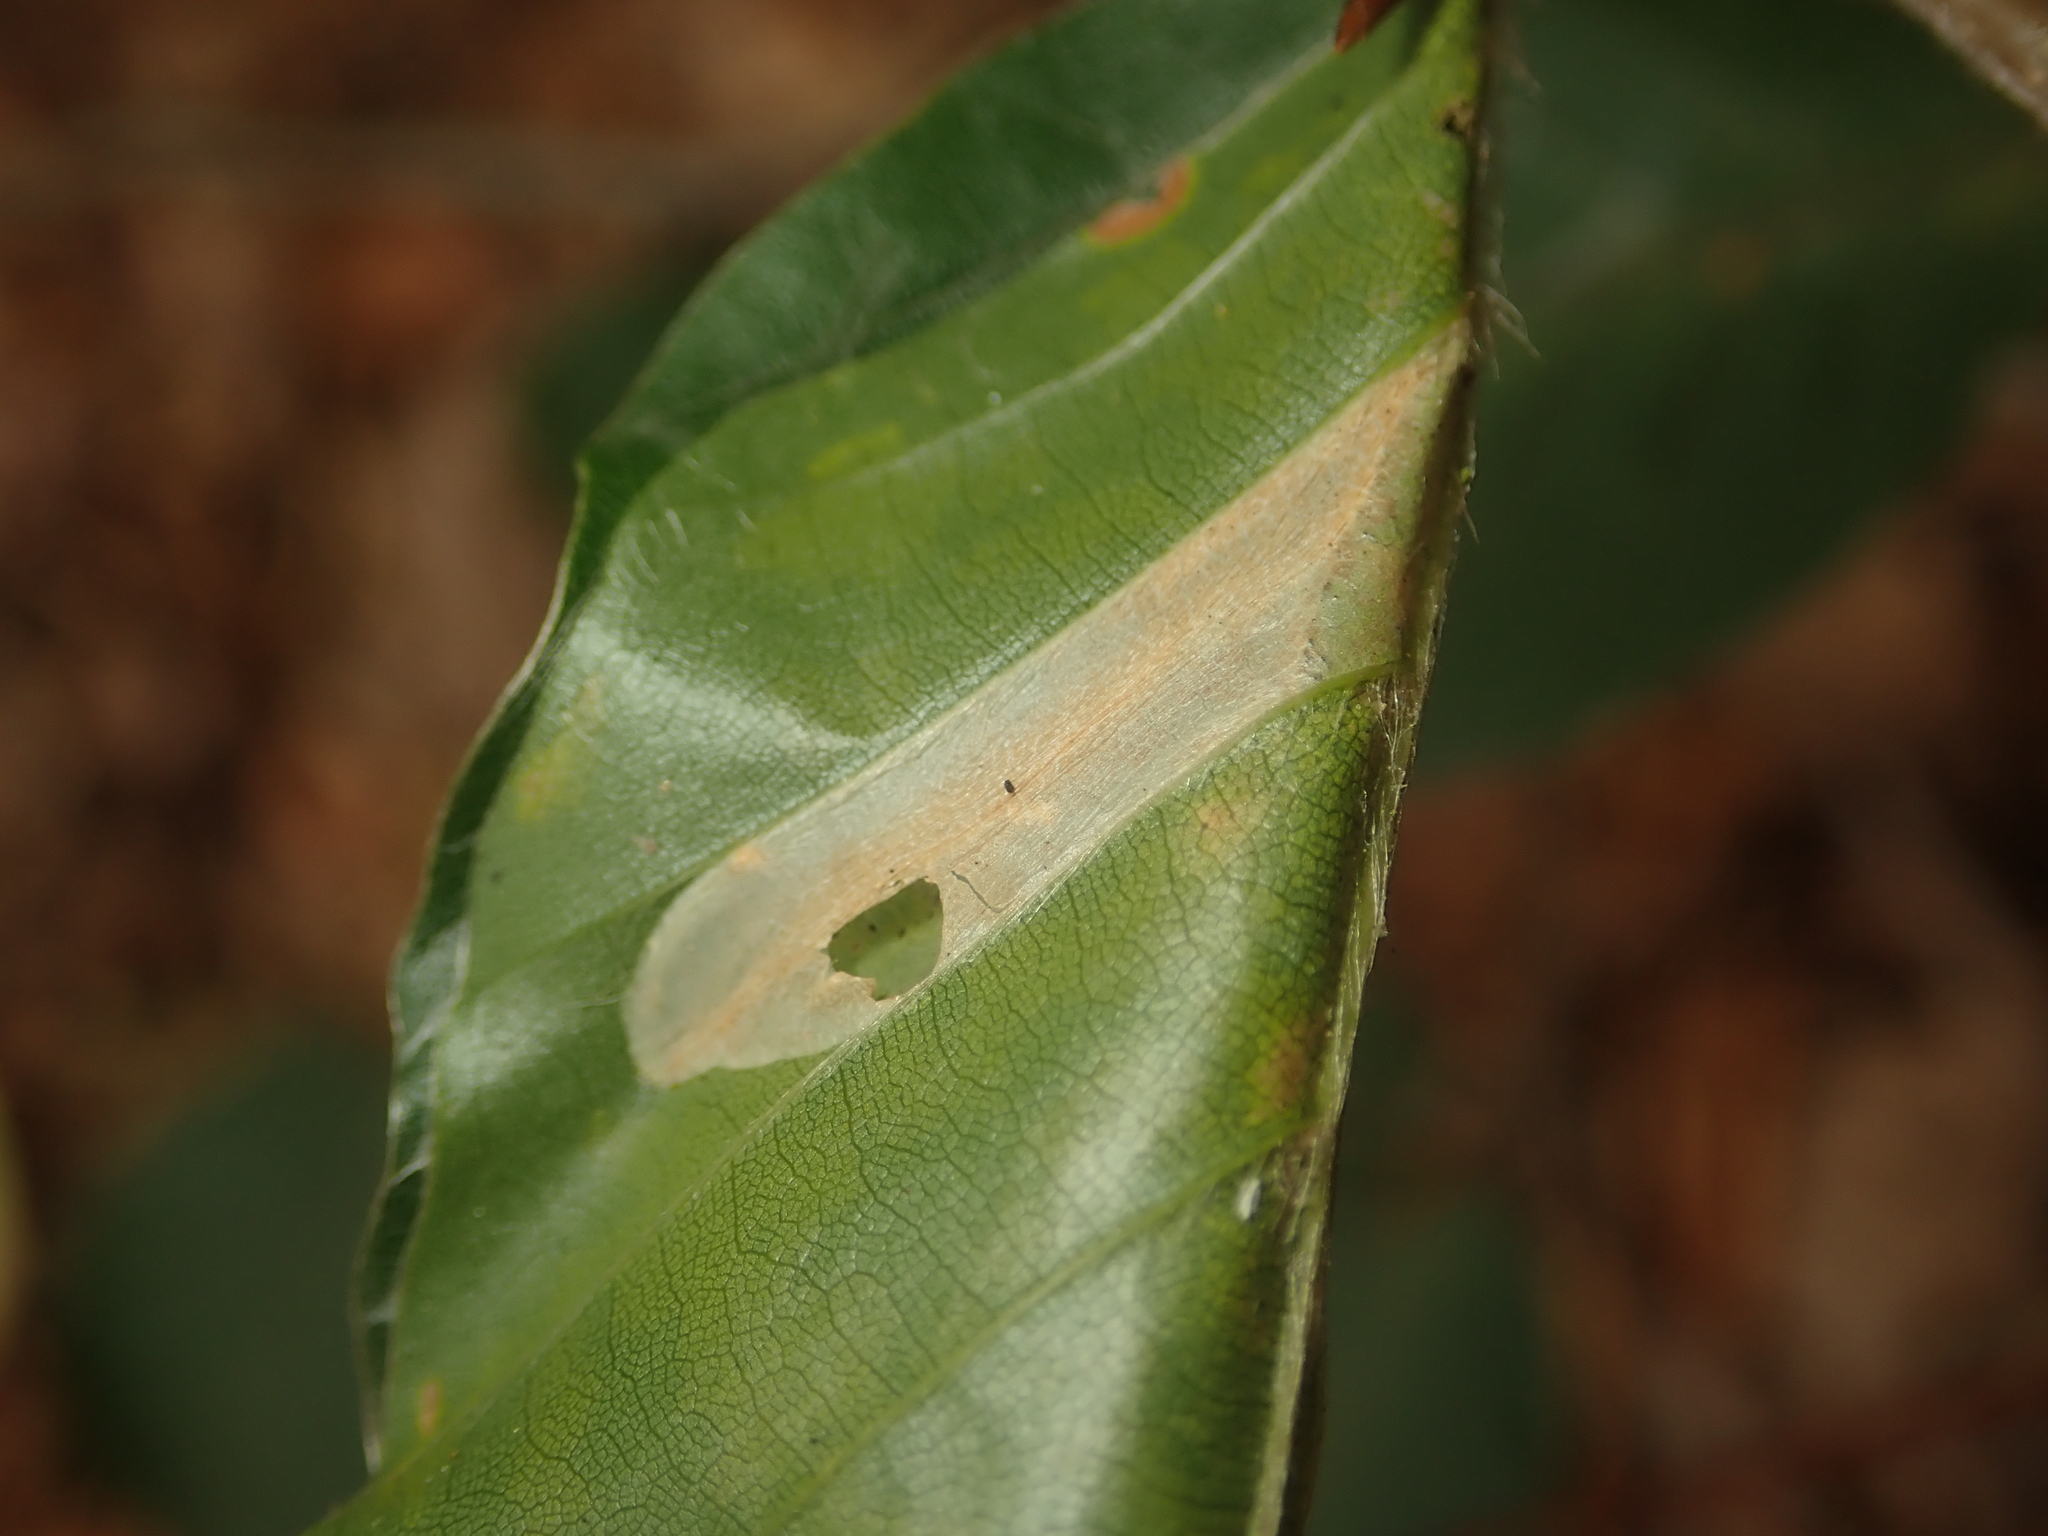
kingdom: Animalia
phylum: Arthropoda
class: Insecta
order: Lepidoptera
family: Gracillariidae
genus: Phyllonorycter
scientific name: Phyllonorycter maestingella
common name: Beech midget
